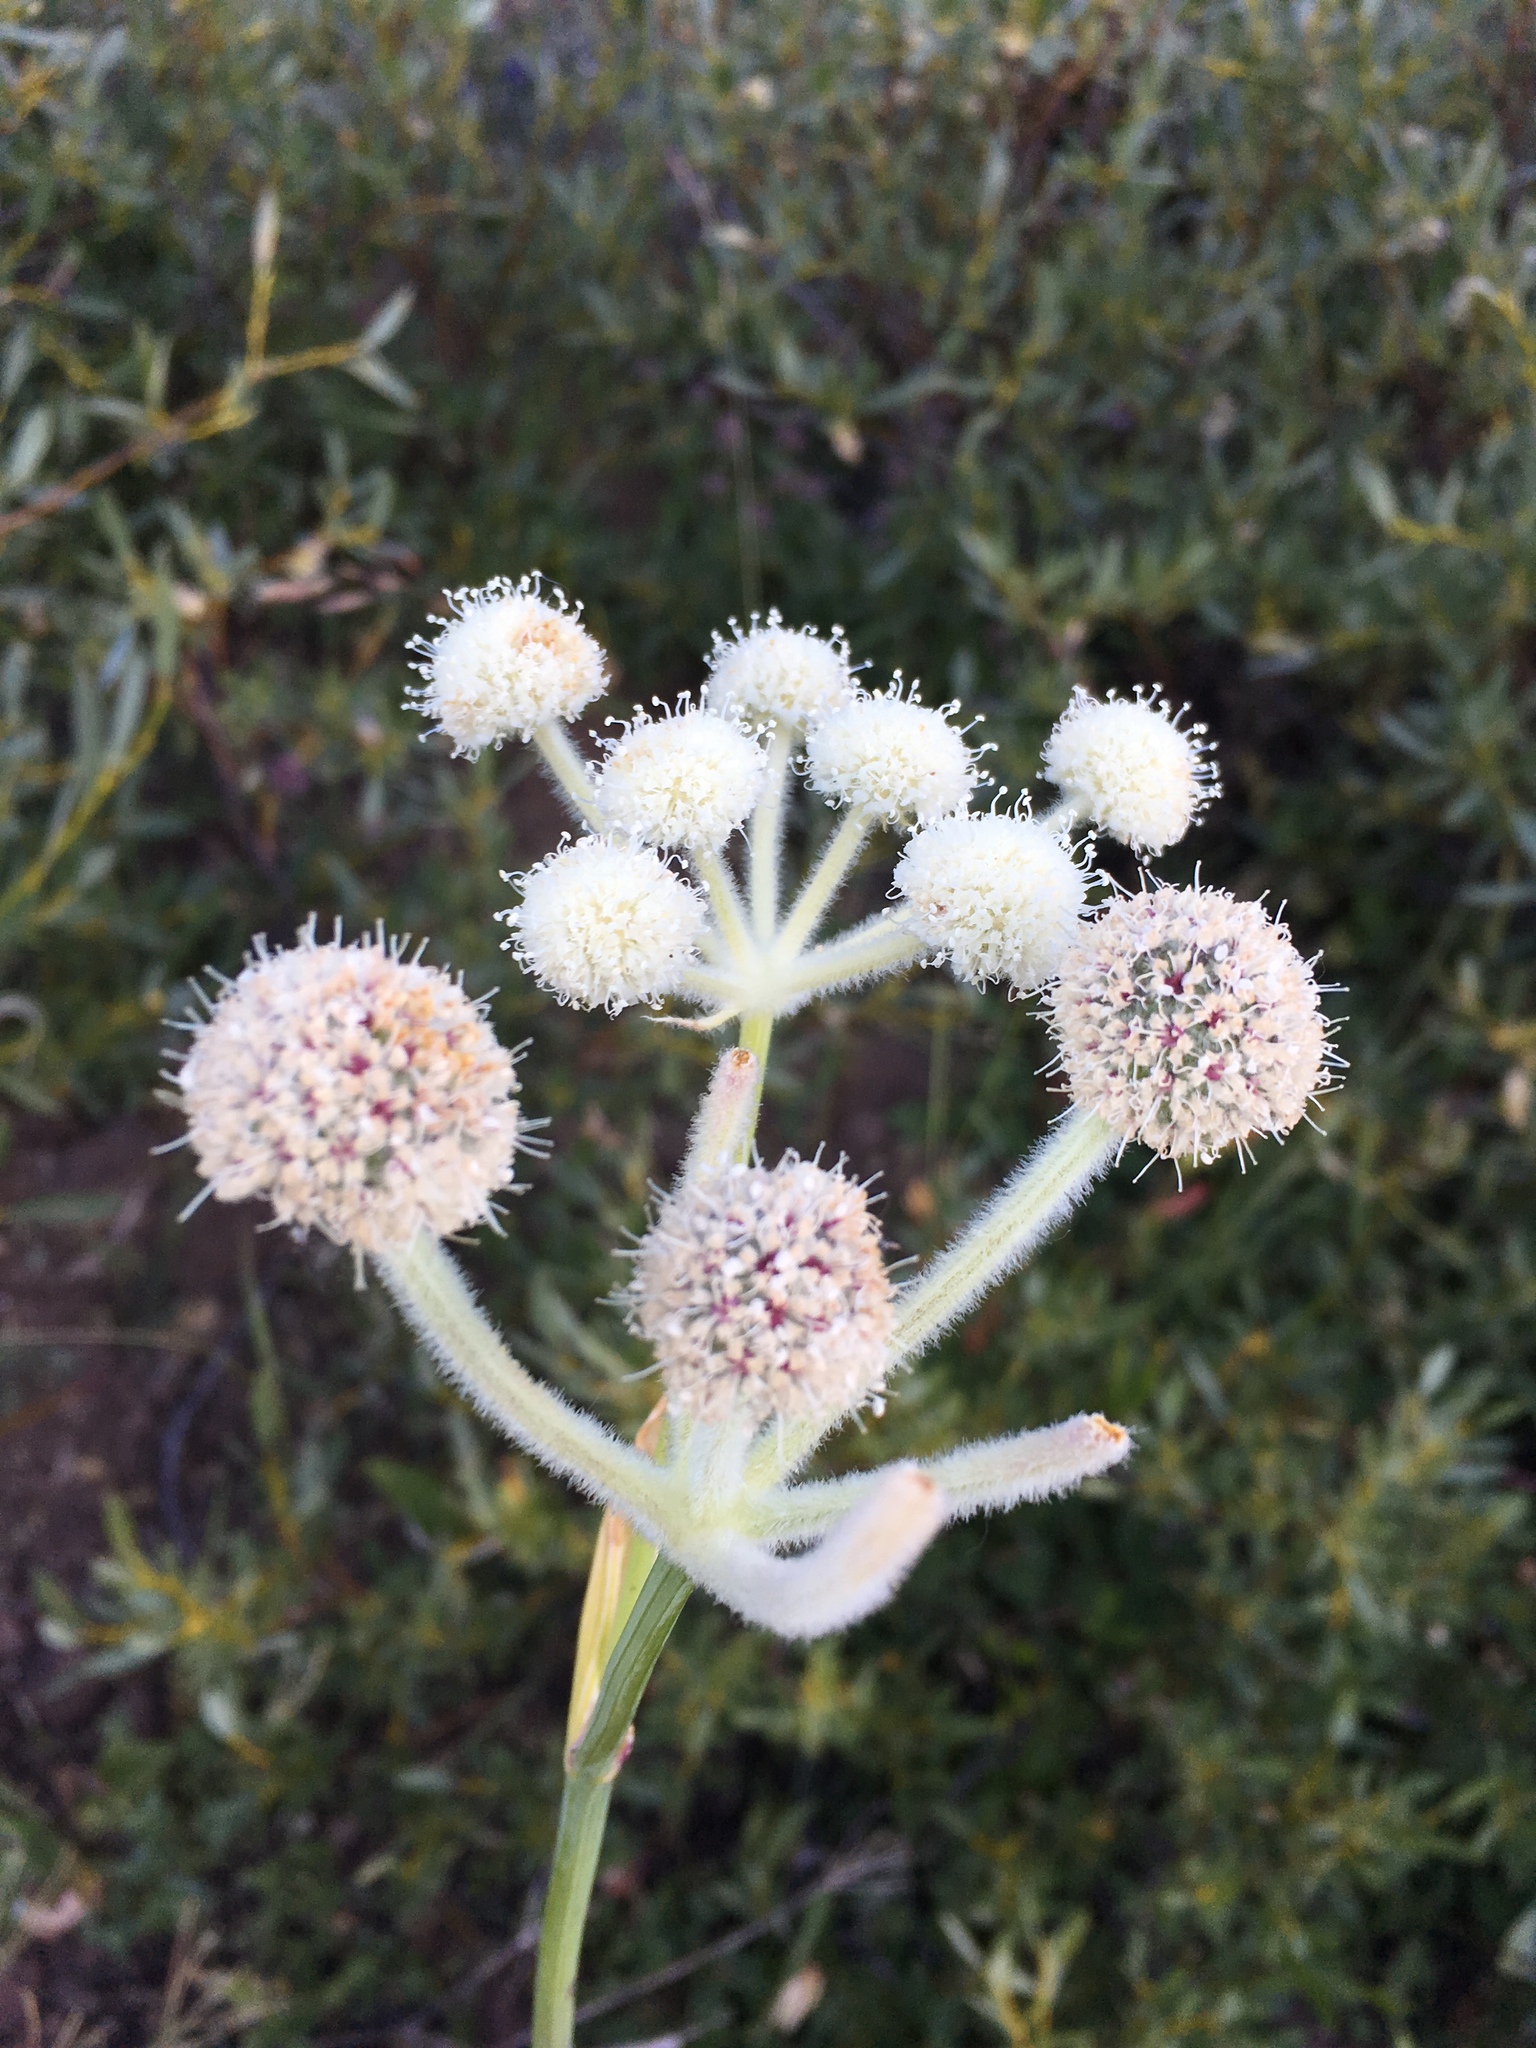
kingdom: Plantae
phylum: Tracheophyta
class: Magnoliopsida
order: Apiales
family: Apiaceae
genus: Angelica
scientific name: Angelica capitellata
